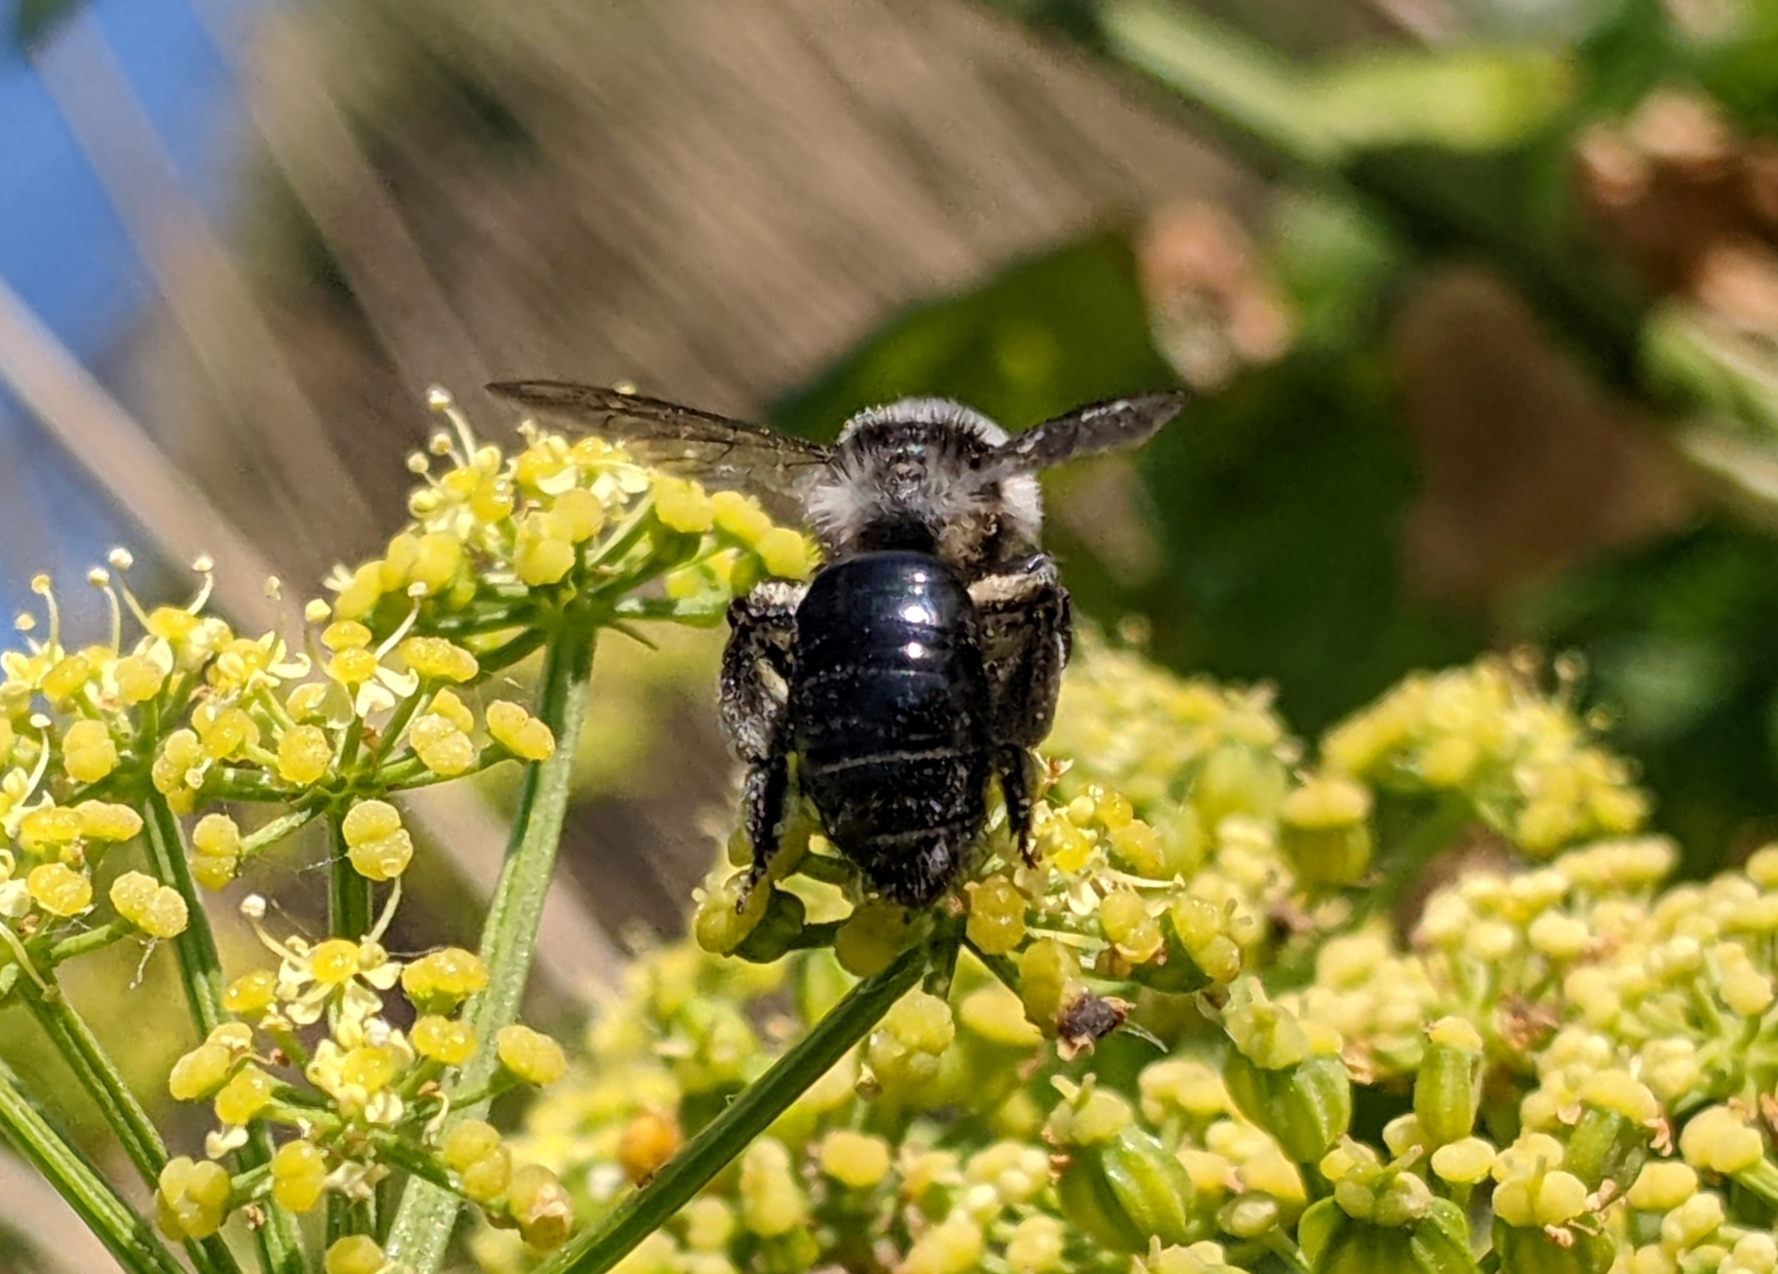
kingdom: Animalia
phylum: Arthropoda
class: Insecta
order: Hymenoptera
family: Andrenidae
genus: Andrena
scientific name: Andrena cineraria
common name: Ashy mining bee
